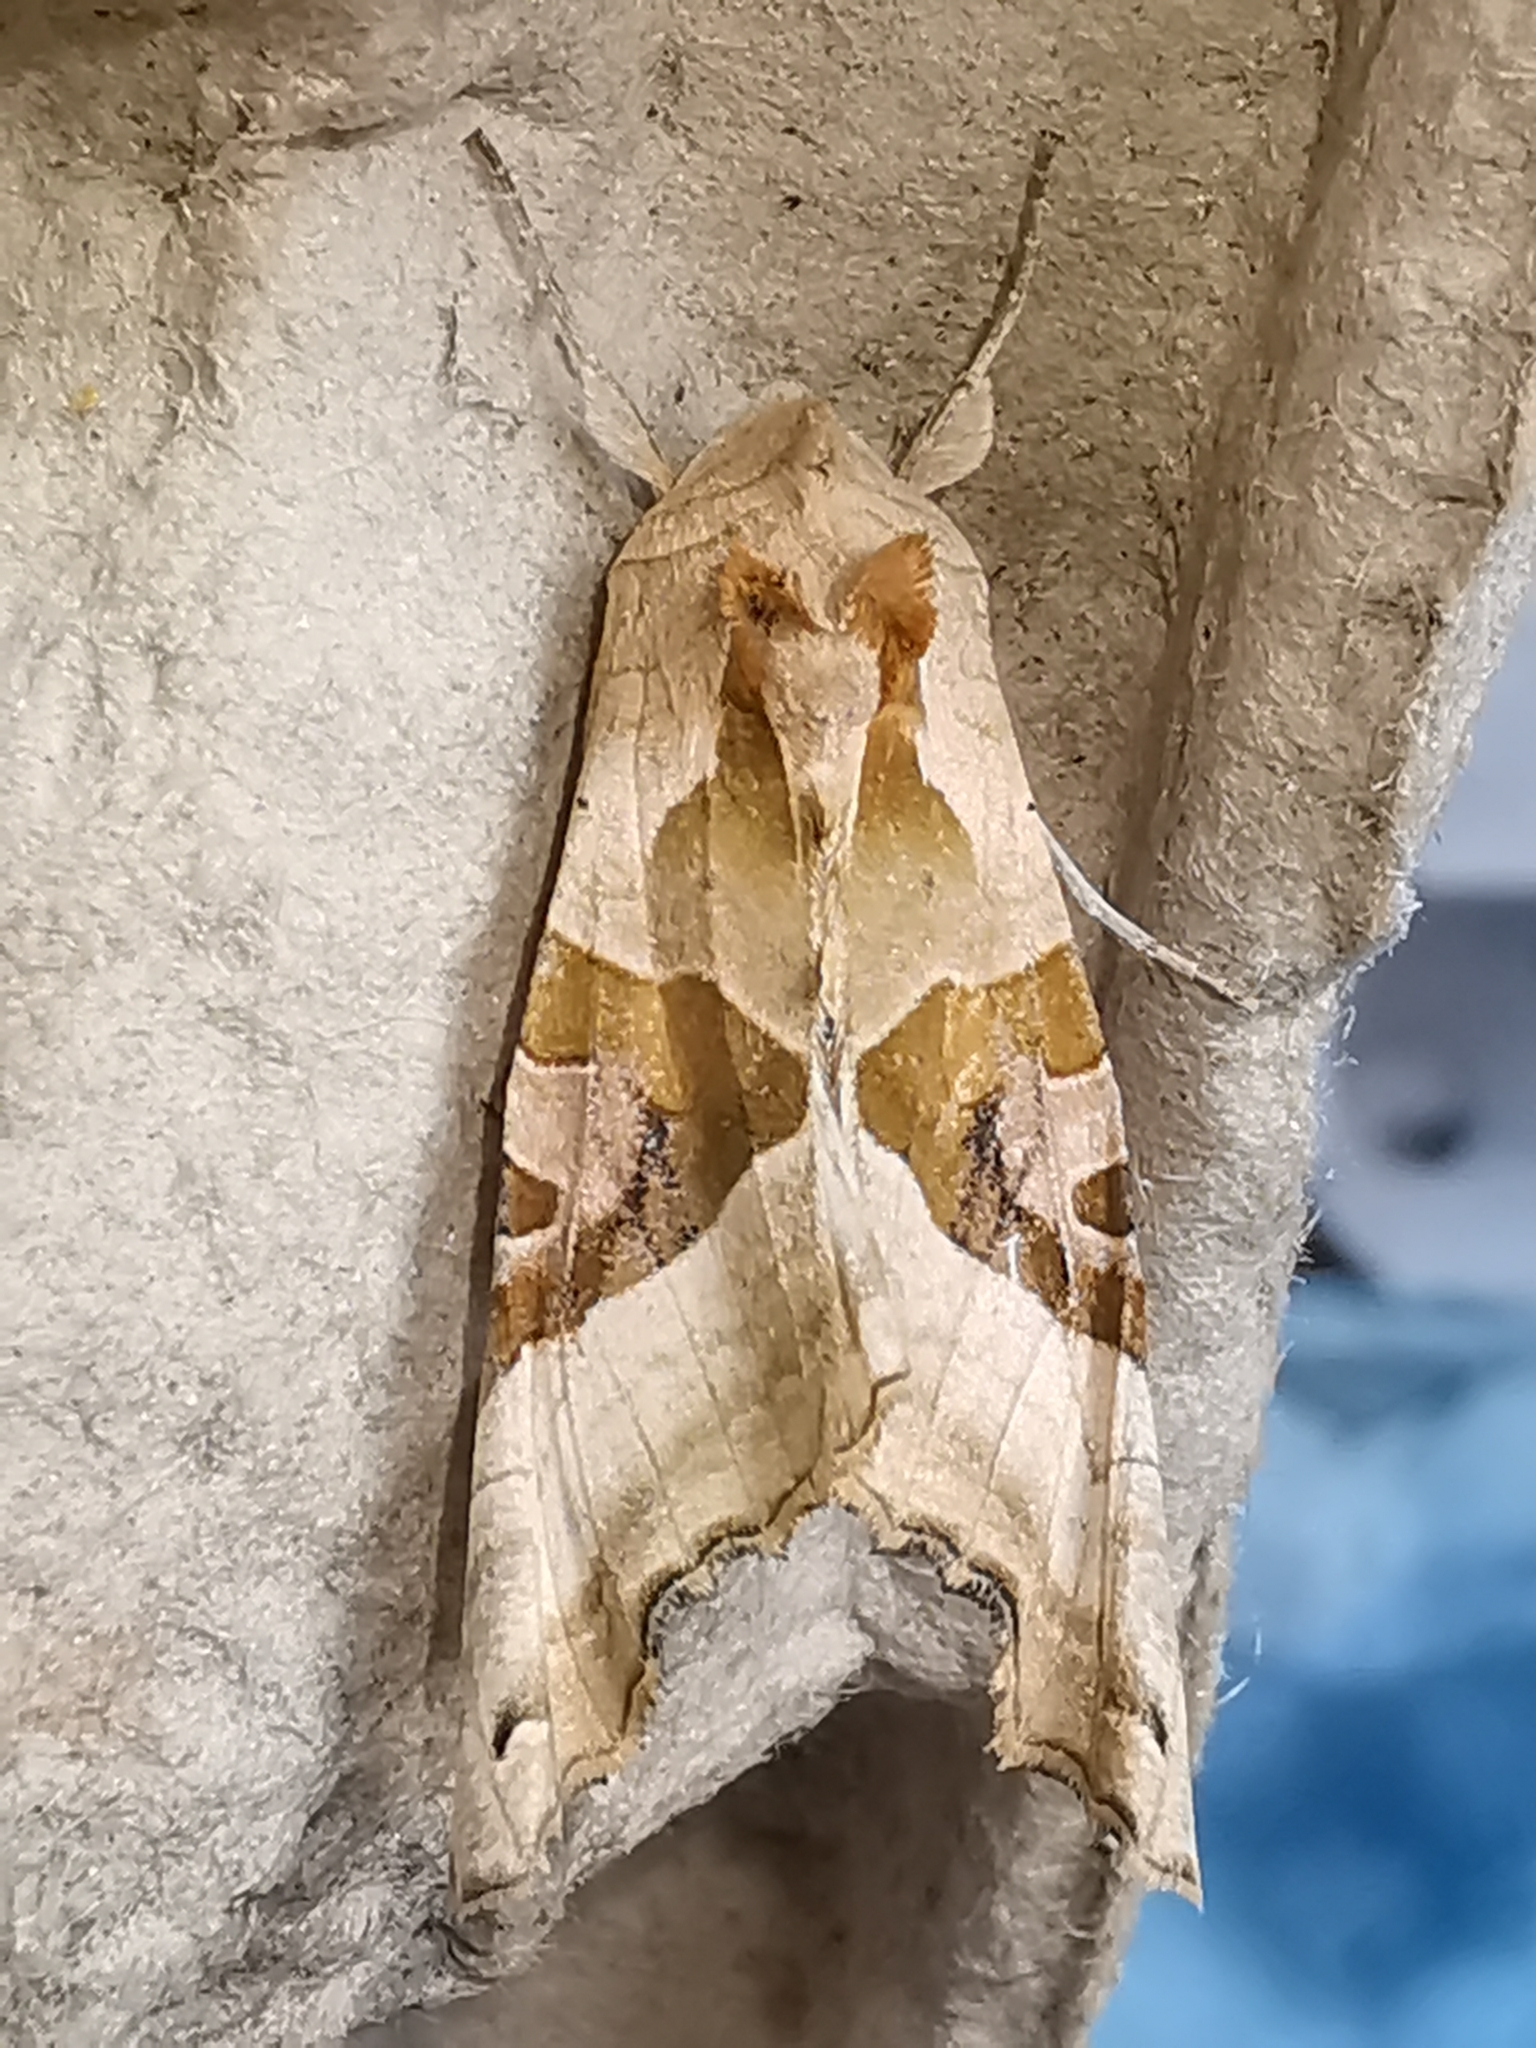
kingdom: Animalia
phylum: Arthropoda
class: Insecta
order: Lepidoptera
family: Noctuidae
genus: Phlogophora
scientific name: Phlogophora meticulosa
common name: Angle shades
